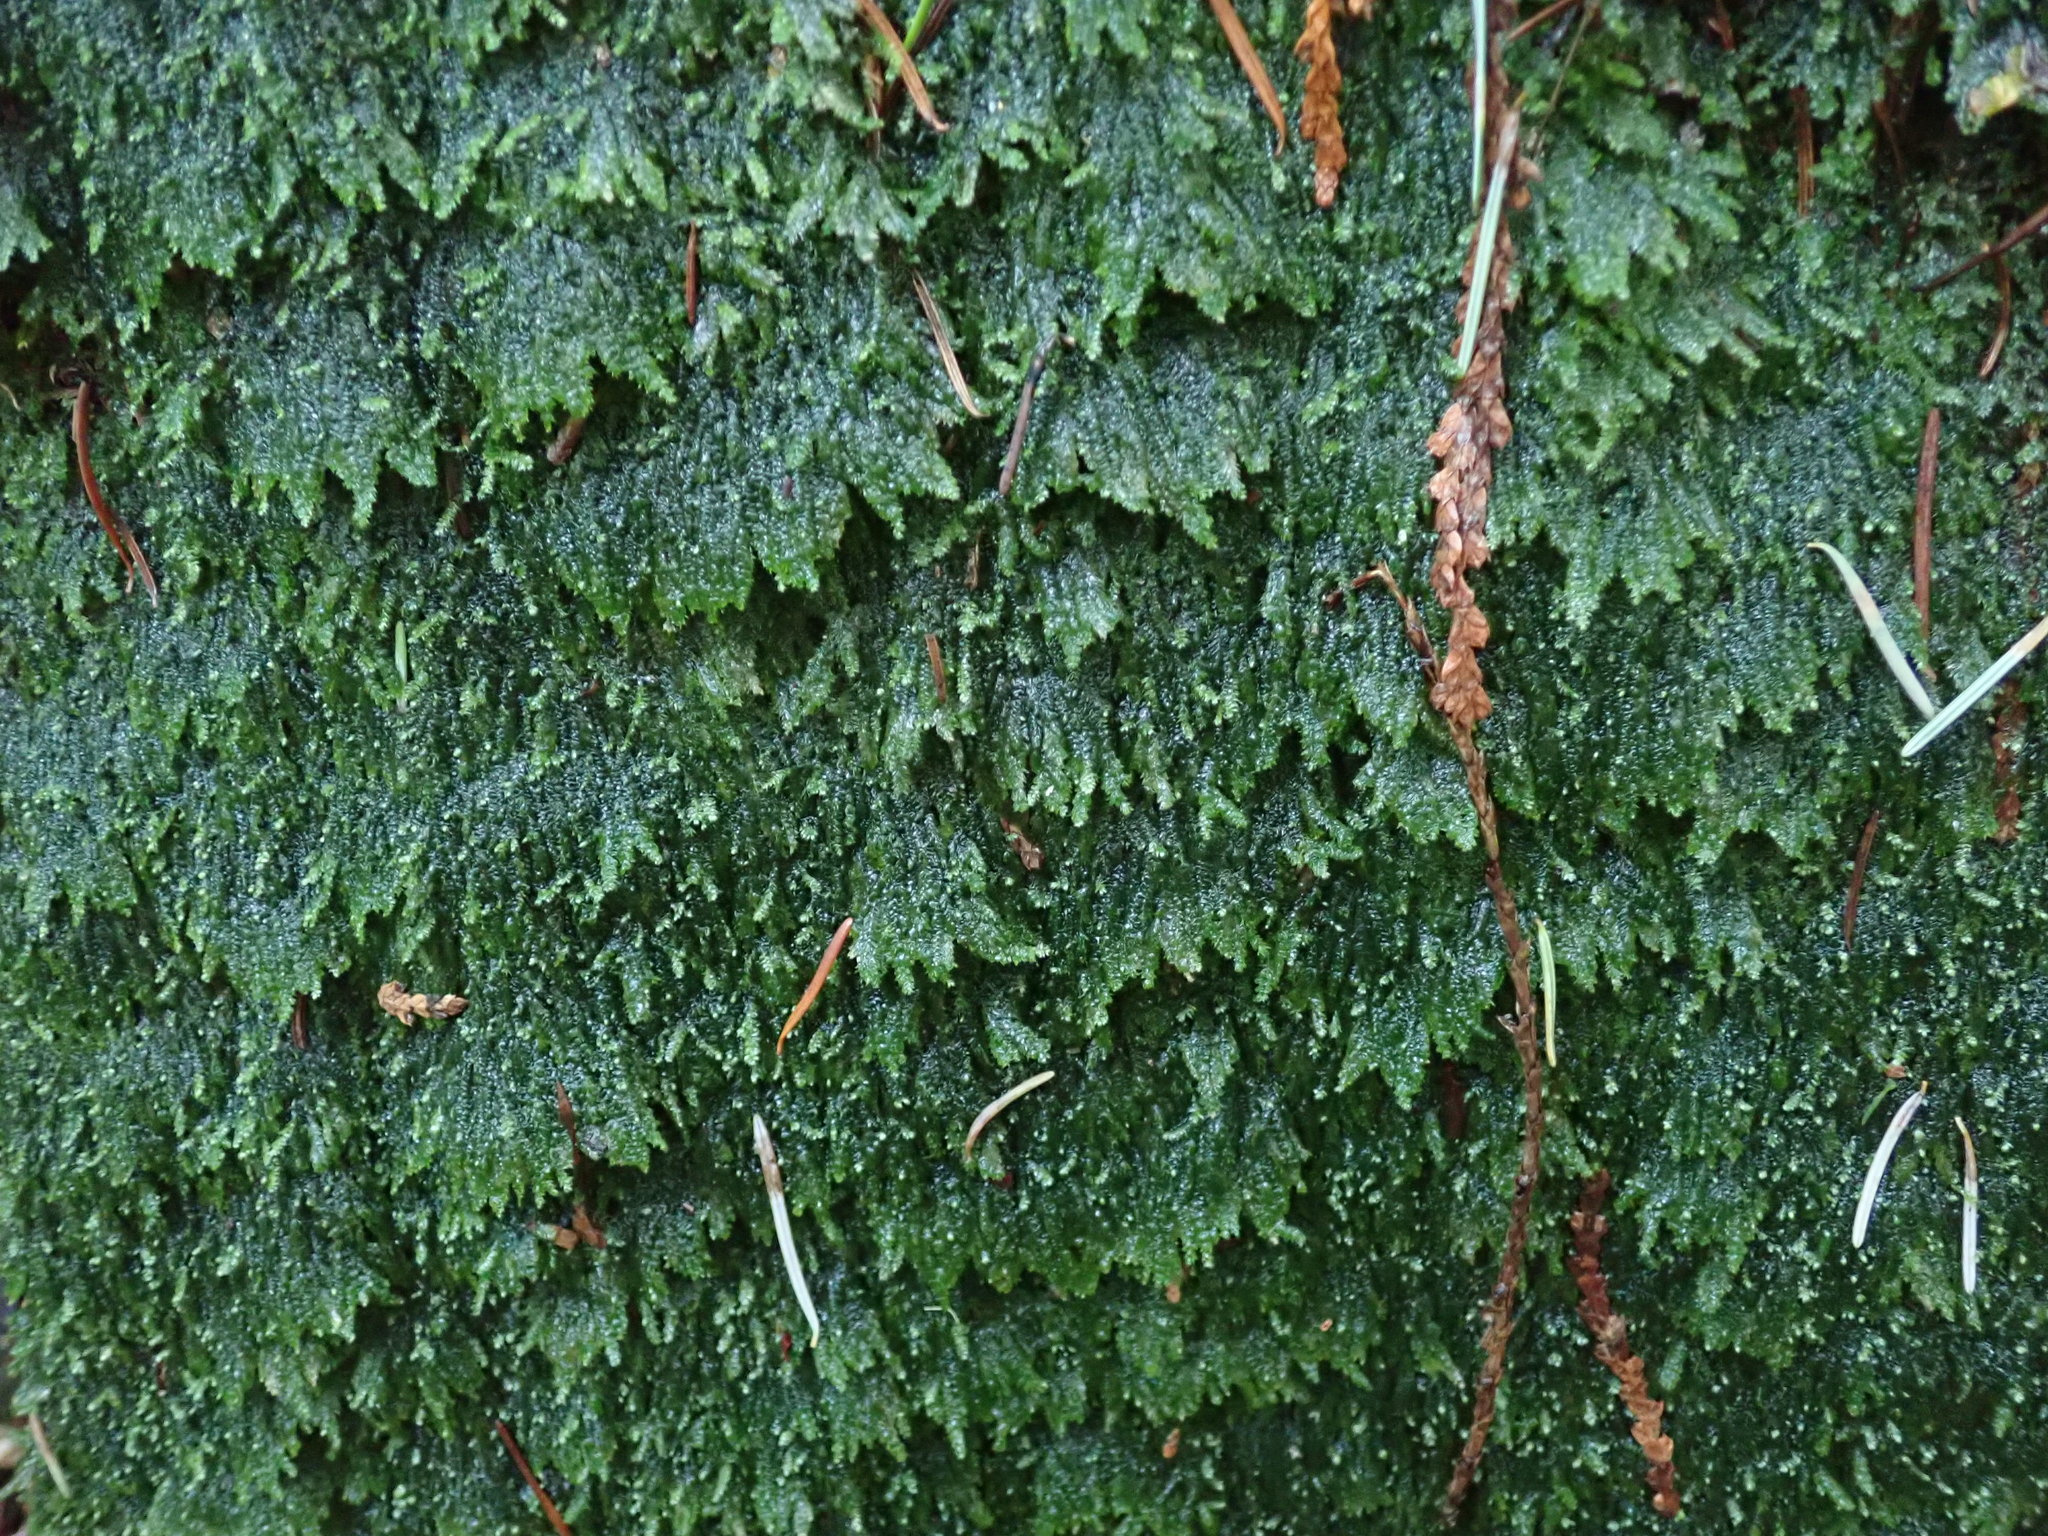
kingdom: Plantae
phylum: Bryophyta
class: Bryopsida
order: Hypnales
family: Plagiotheciaceae
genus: Pseudotaxiphyllum
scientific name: Pseudotaxiphyllum elegans
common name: Elegant silk moss
